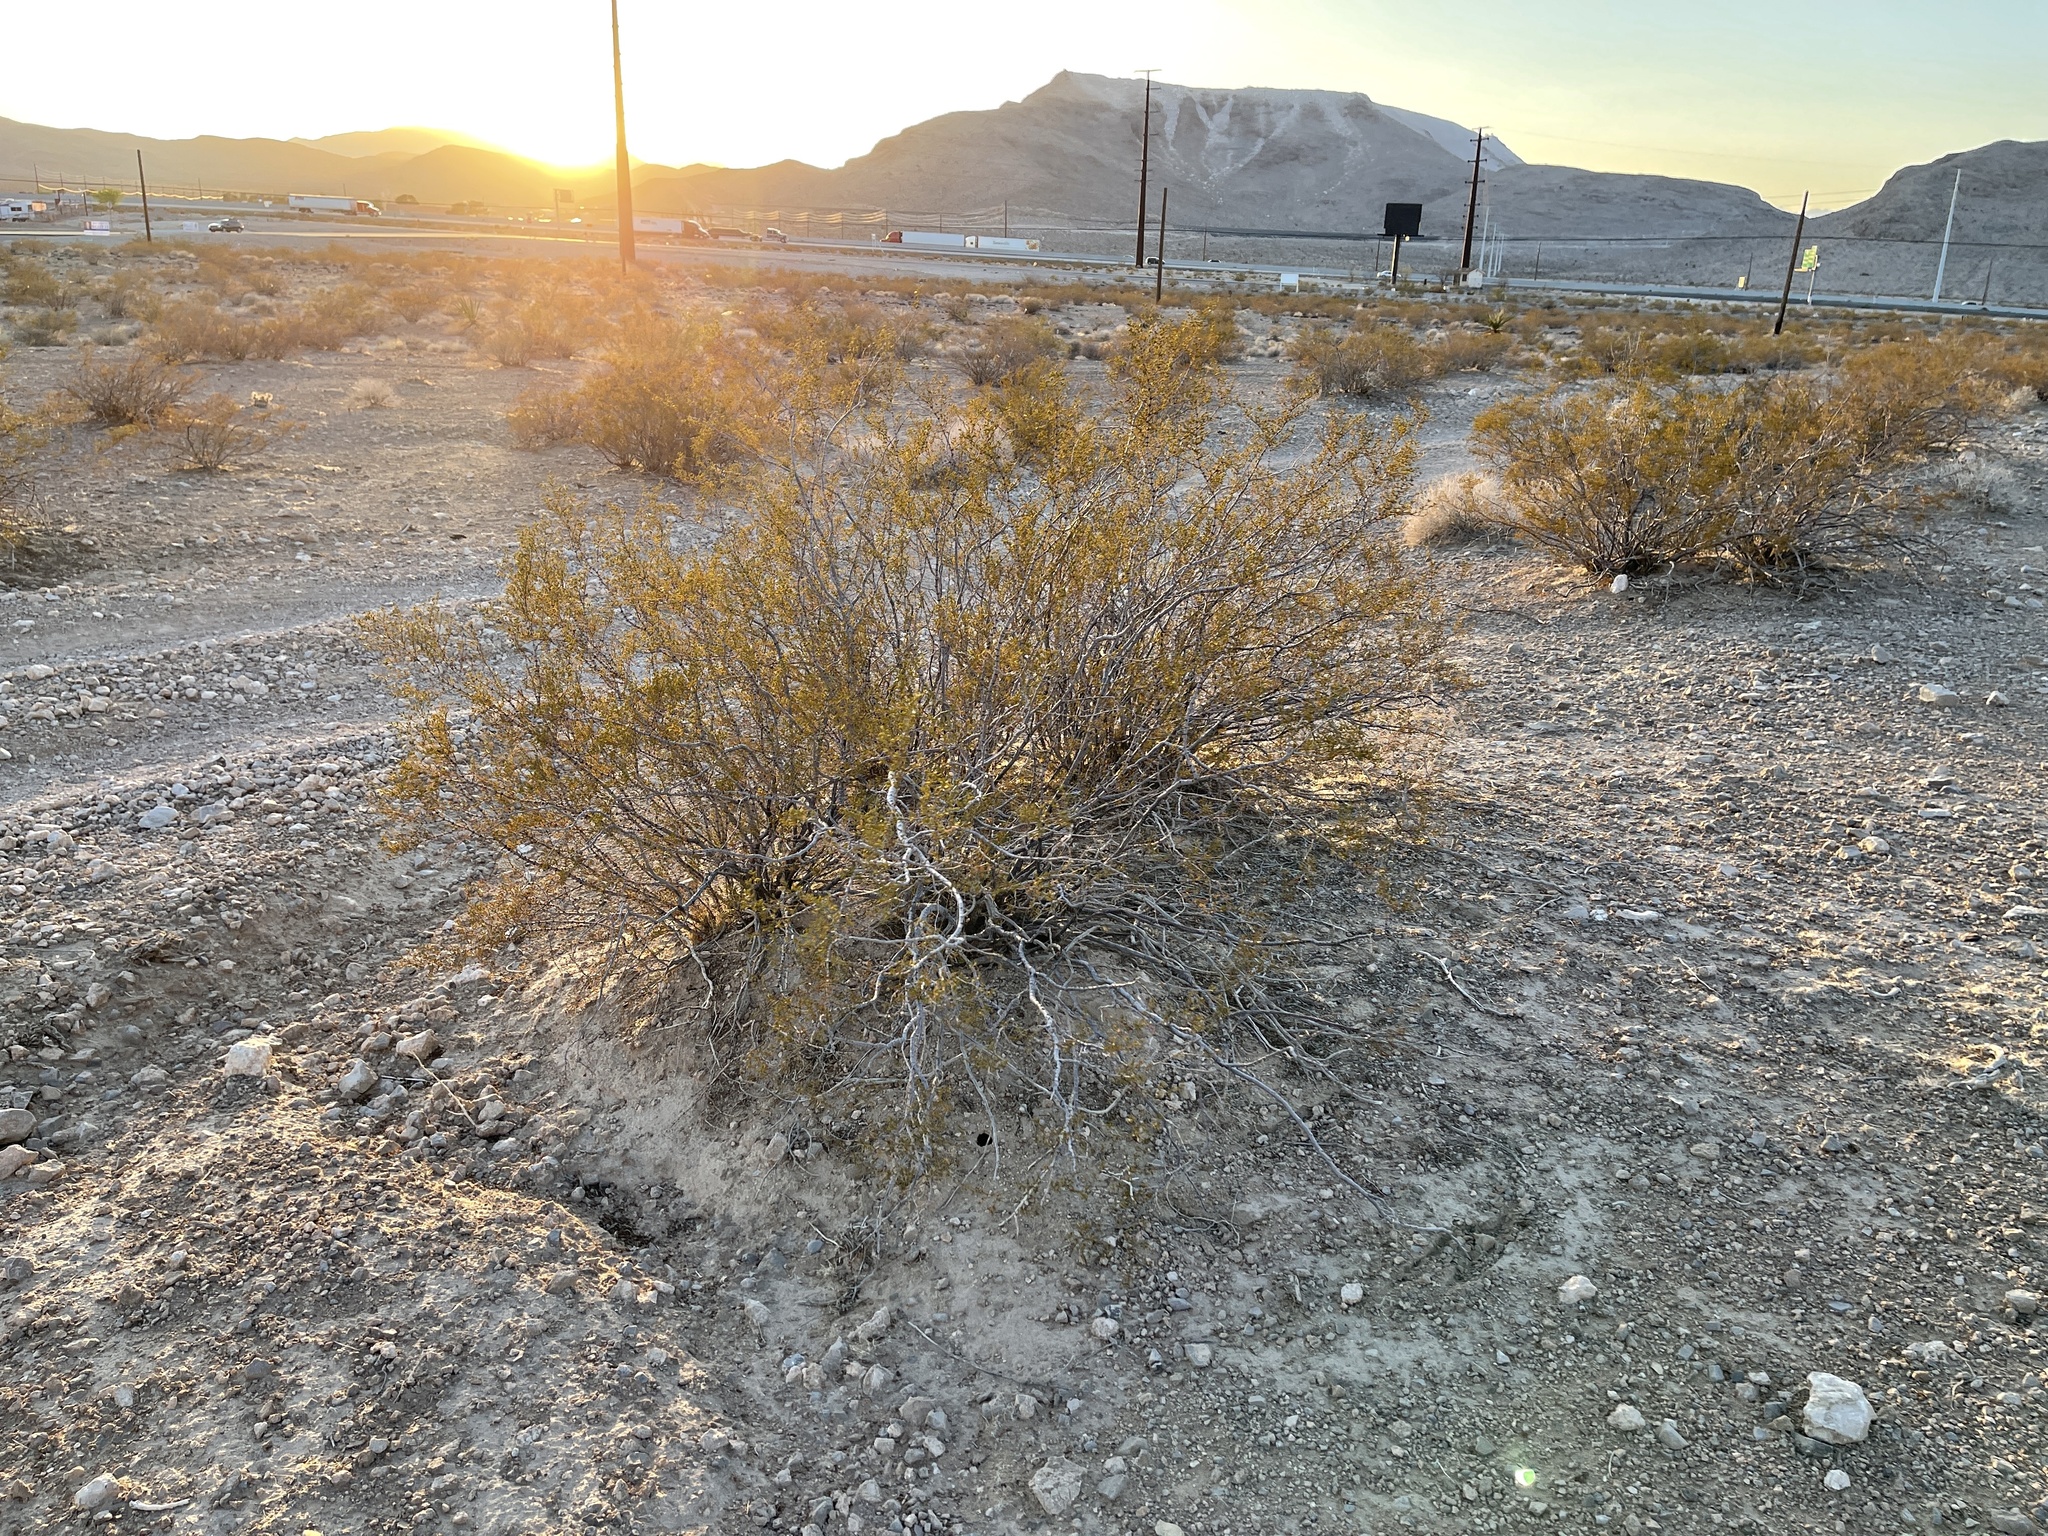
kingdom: Plantae
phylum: Tracheophyta
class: Magnoliopsida
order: Zygophyllales
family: Zygophyllaceae
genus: Larrea
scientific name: Larrea tridentata
